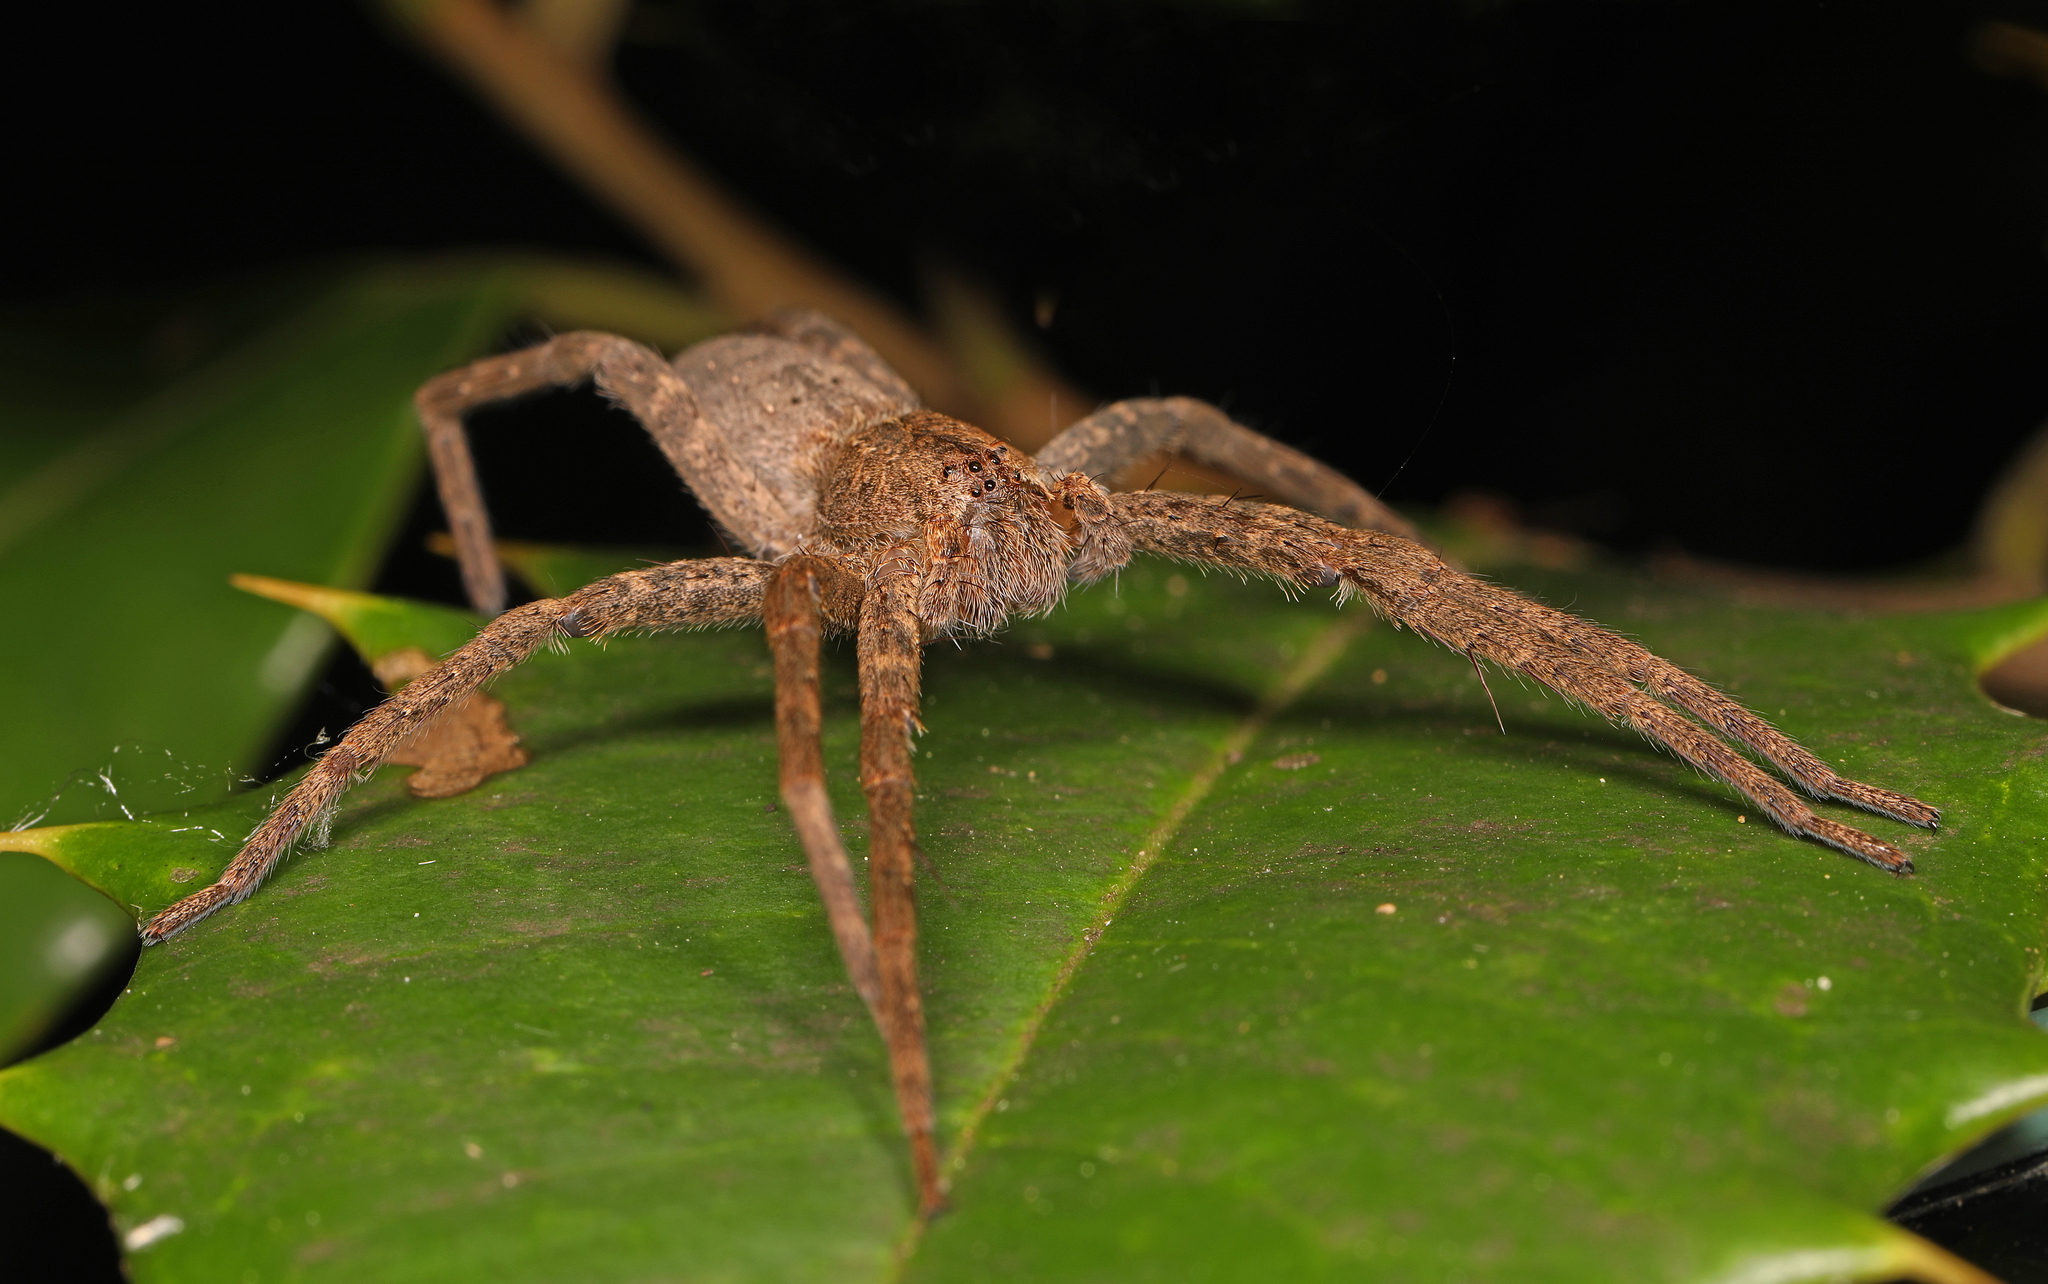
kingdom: Animalia
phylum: Arthropoda
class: Arachnida
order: Araneae
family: Pisauridae
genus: Pisaurina
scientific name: Pisaurina mira
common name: American nursery web spider
